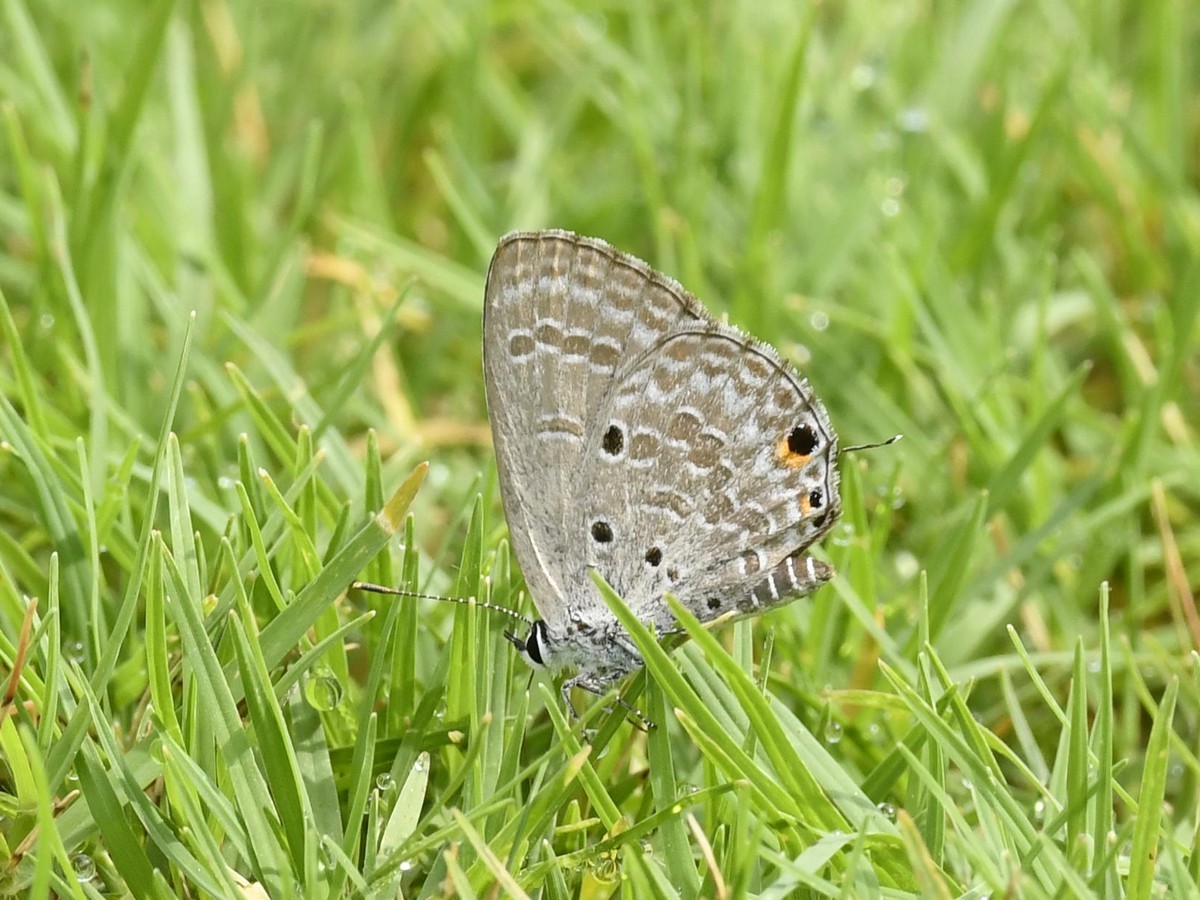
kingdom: Animalia
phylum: Arthropoda
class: Insecta
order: Lepidoptera
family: Lycaenidae
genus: Luthrodes
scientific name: Luthrodes pandava
